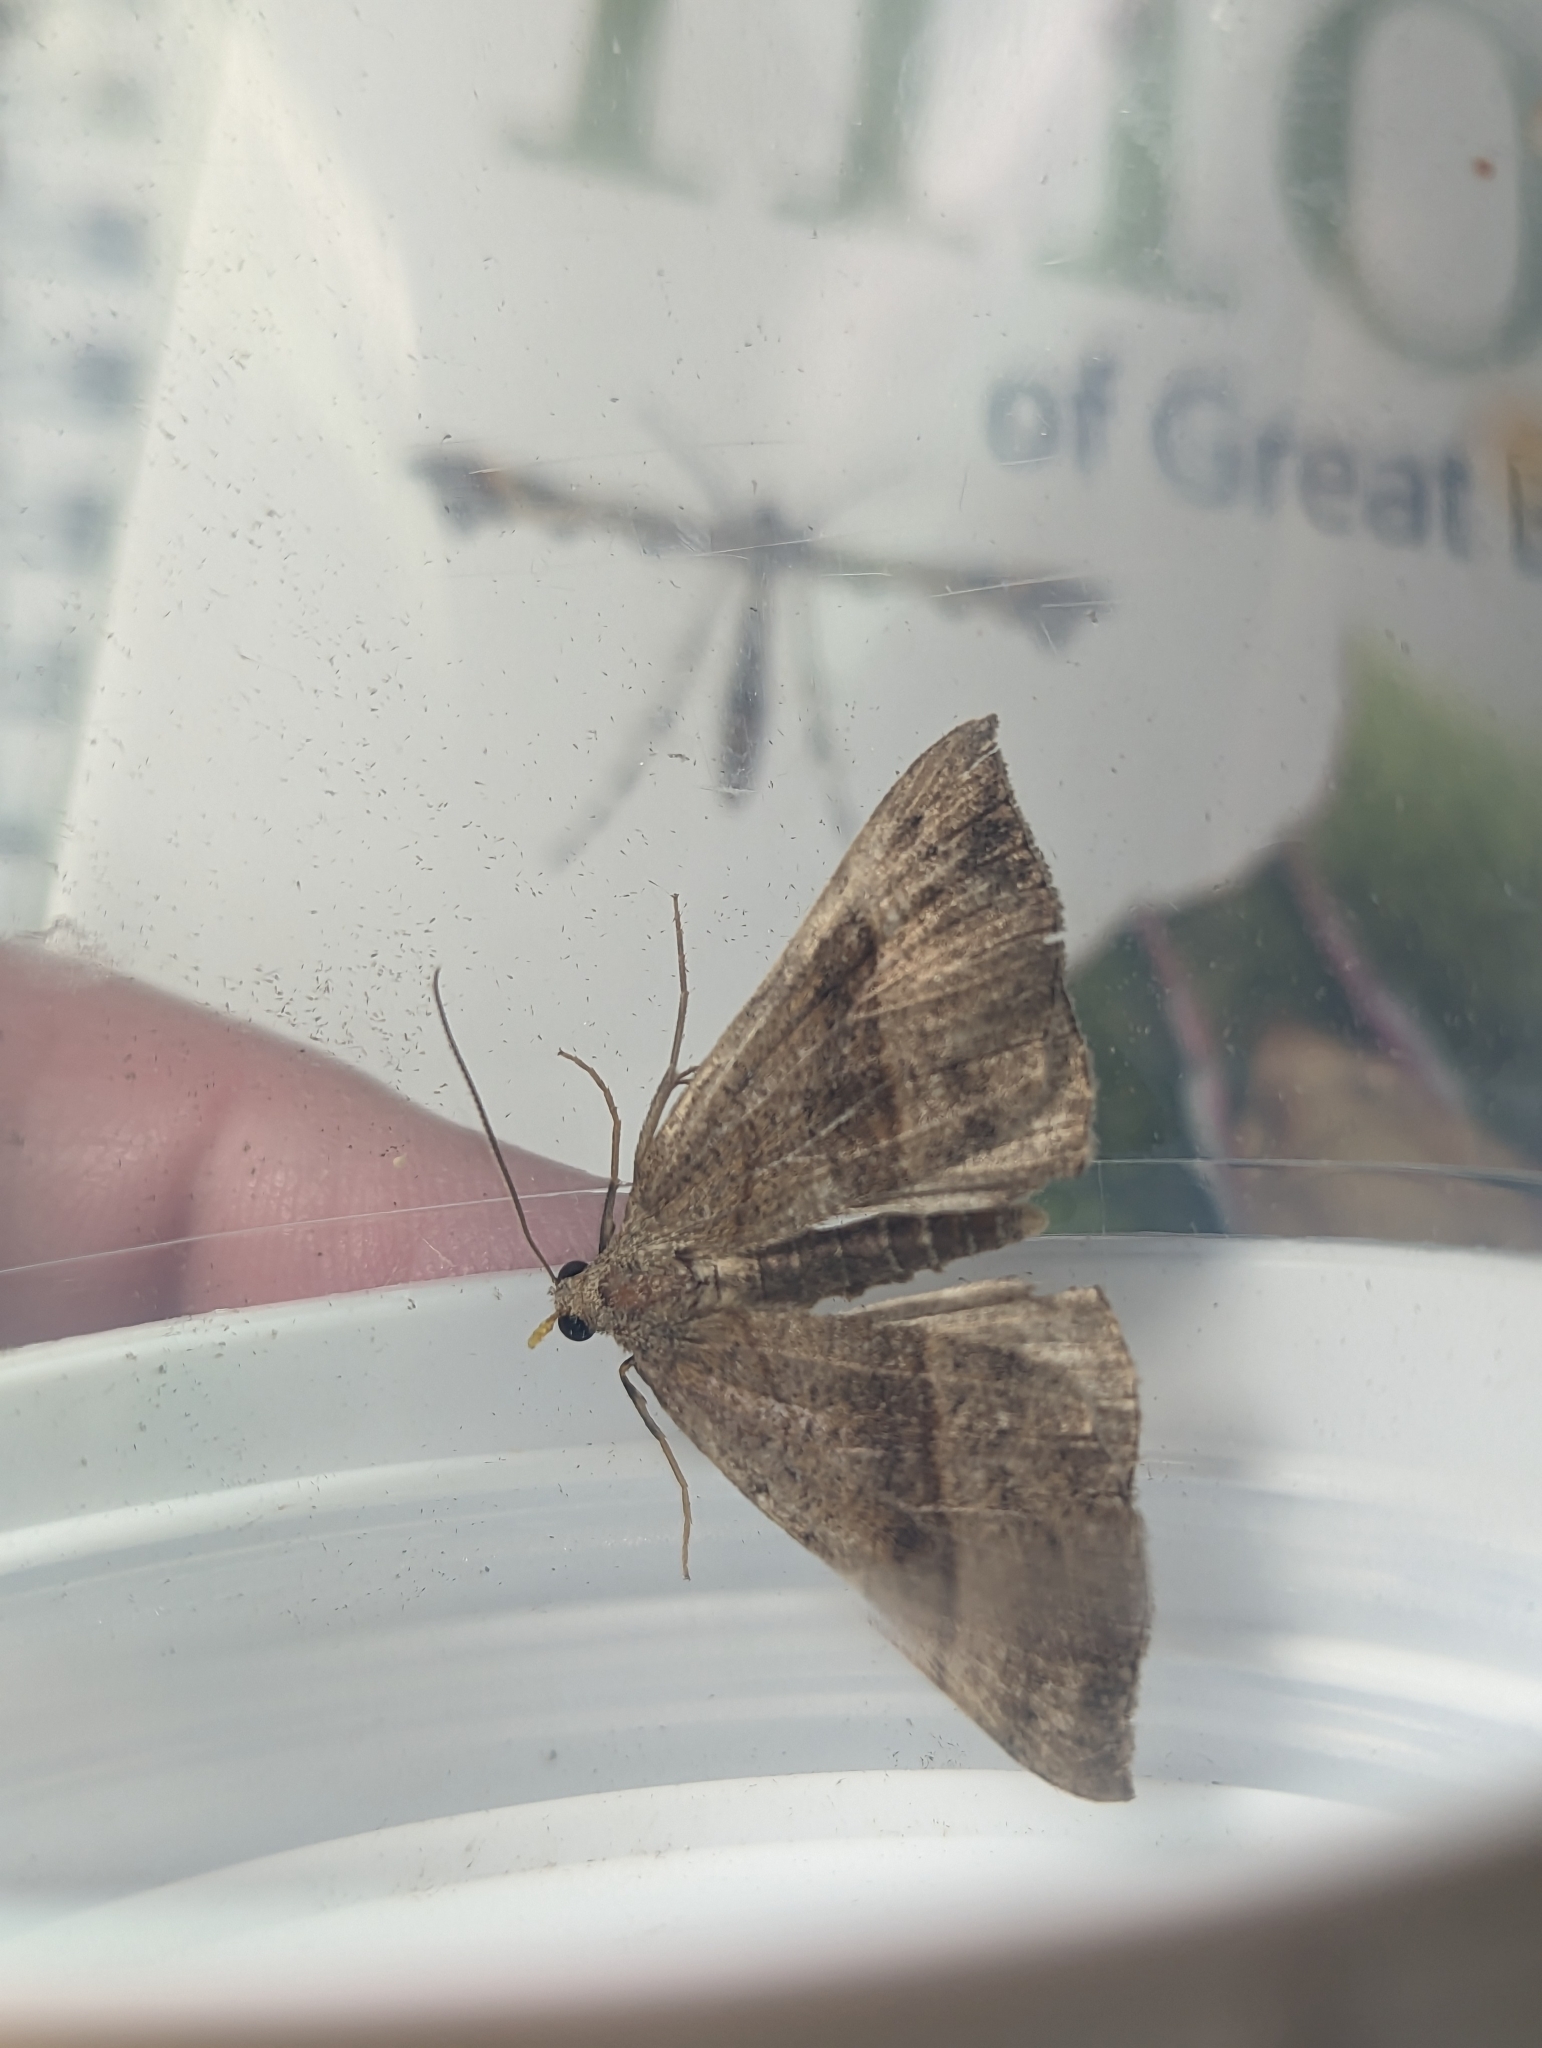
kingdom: Animalia
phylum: Arthropoda
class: Insecta
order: Lepidoptera
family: Erebidae
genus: Hypena
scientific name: Hypena proboscidalis
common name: Snout
